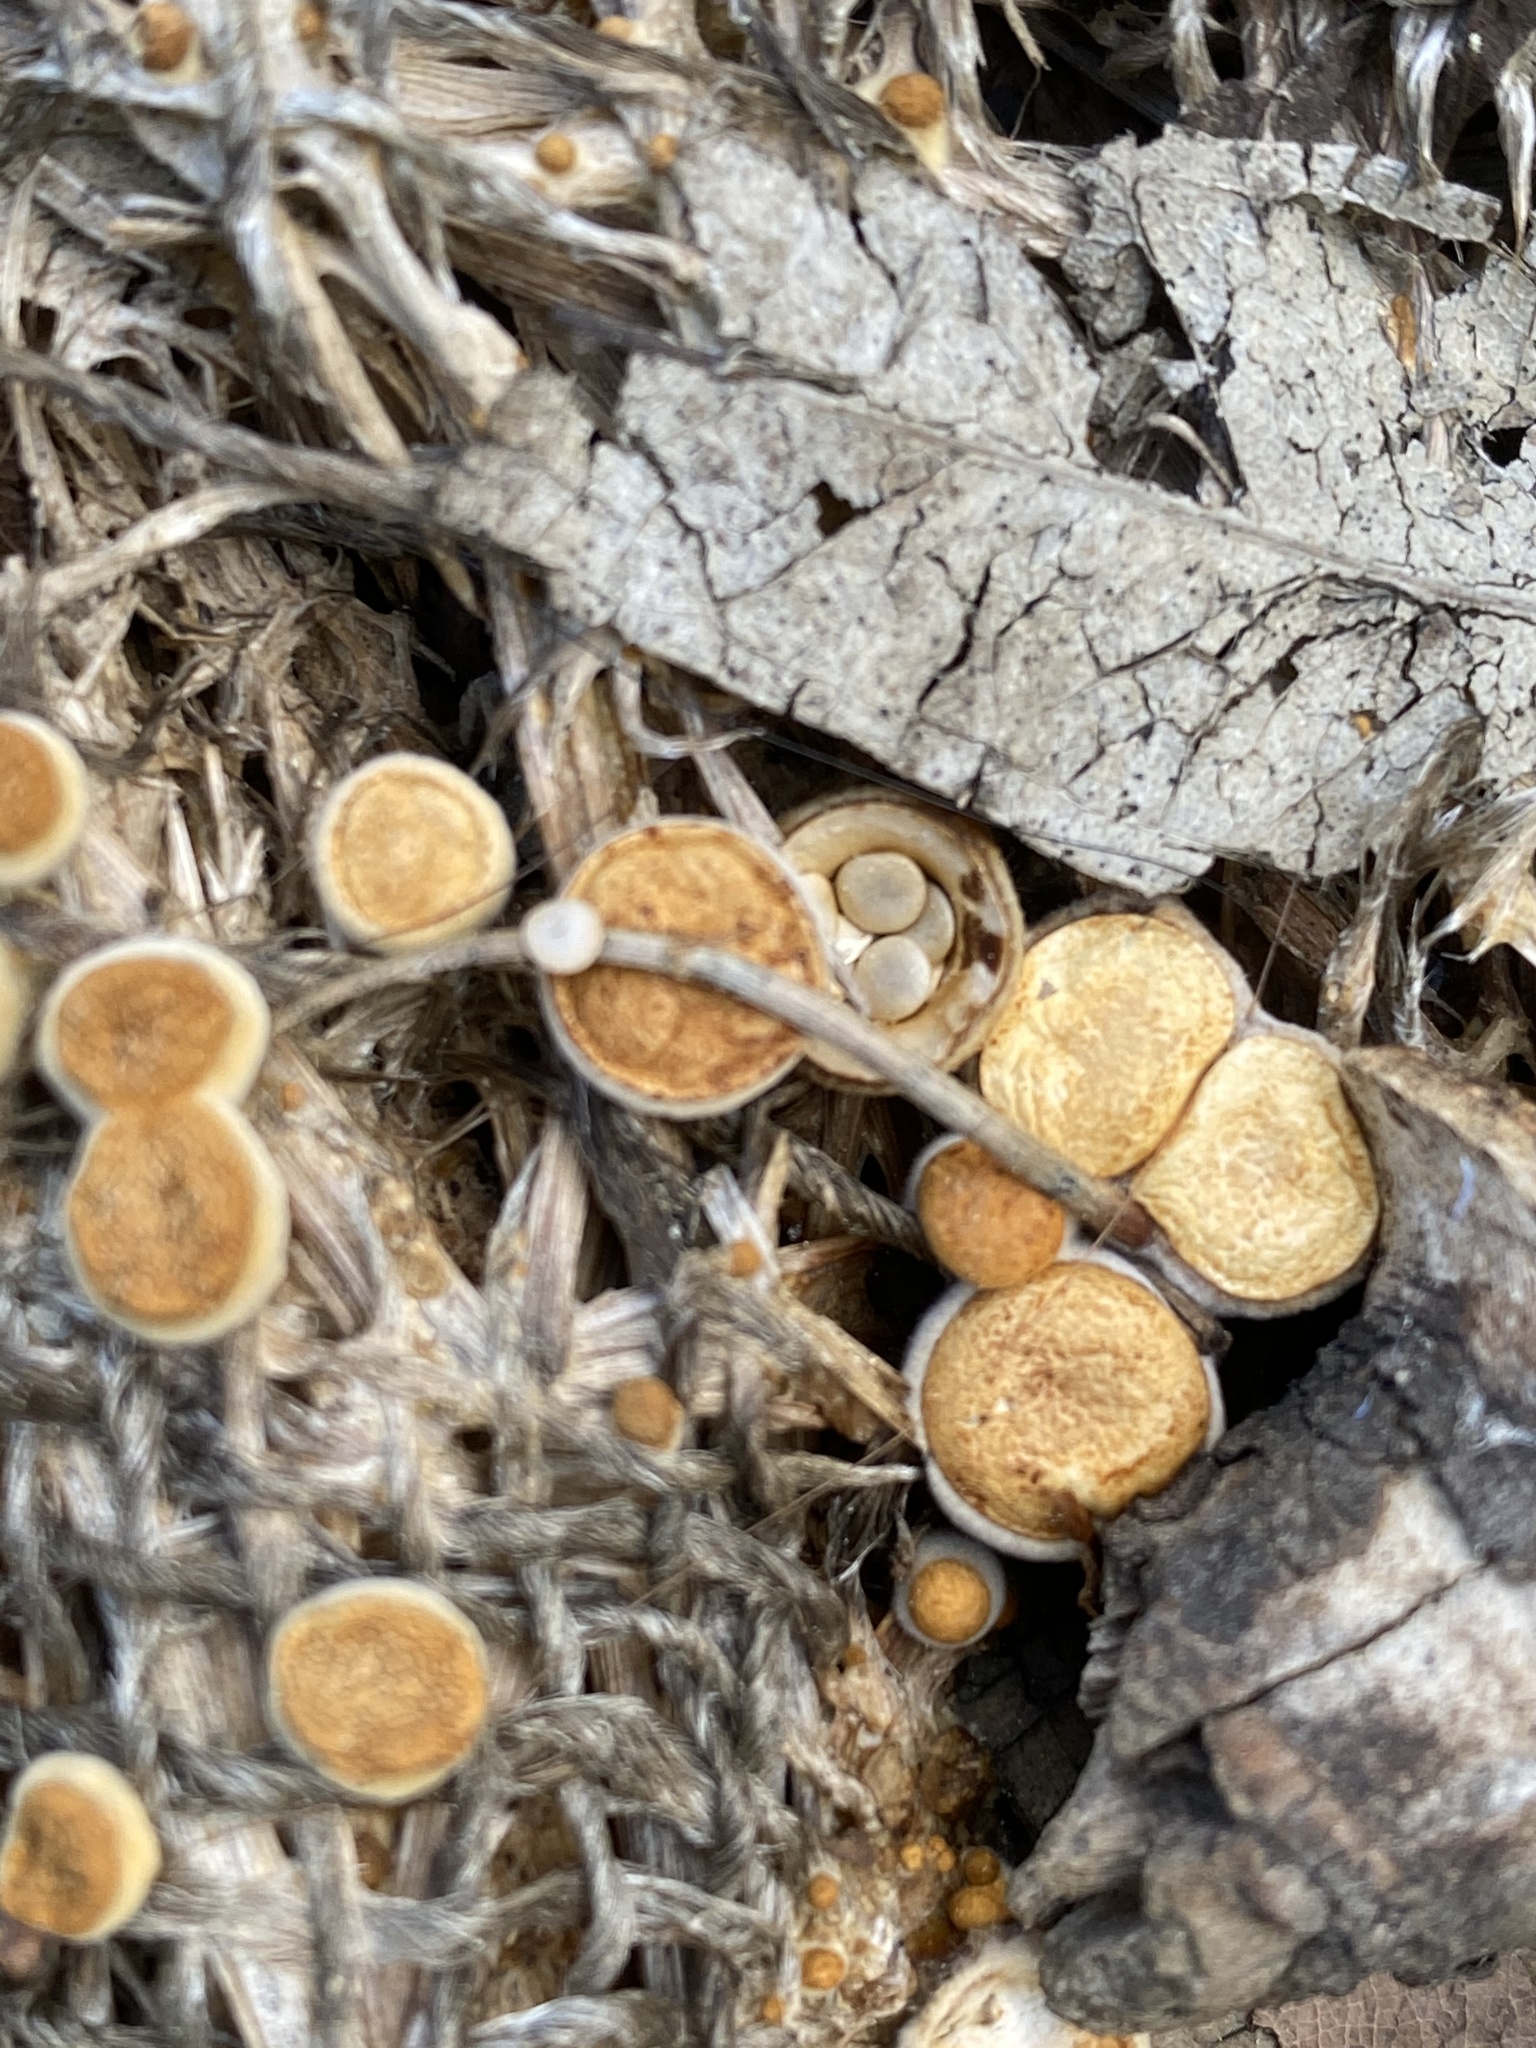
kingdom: Fungi
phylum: Basidiomycota
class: Agaricomycetes
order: Agaricales
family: Nidulariaceae
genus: Crucibulum
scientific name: Crucibulum laeve
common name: Common bird's nest
